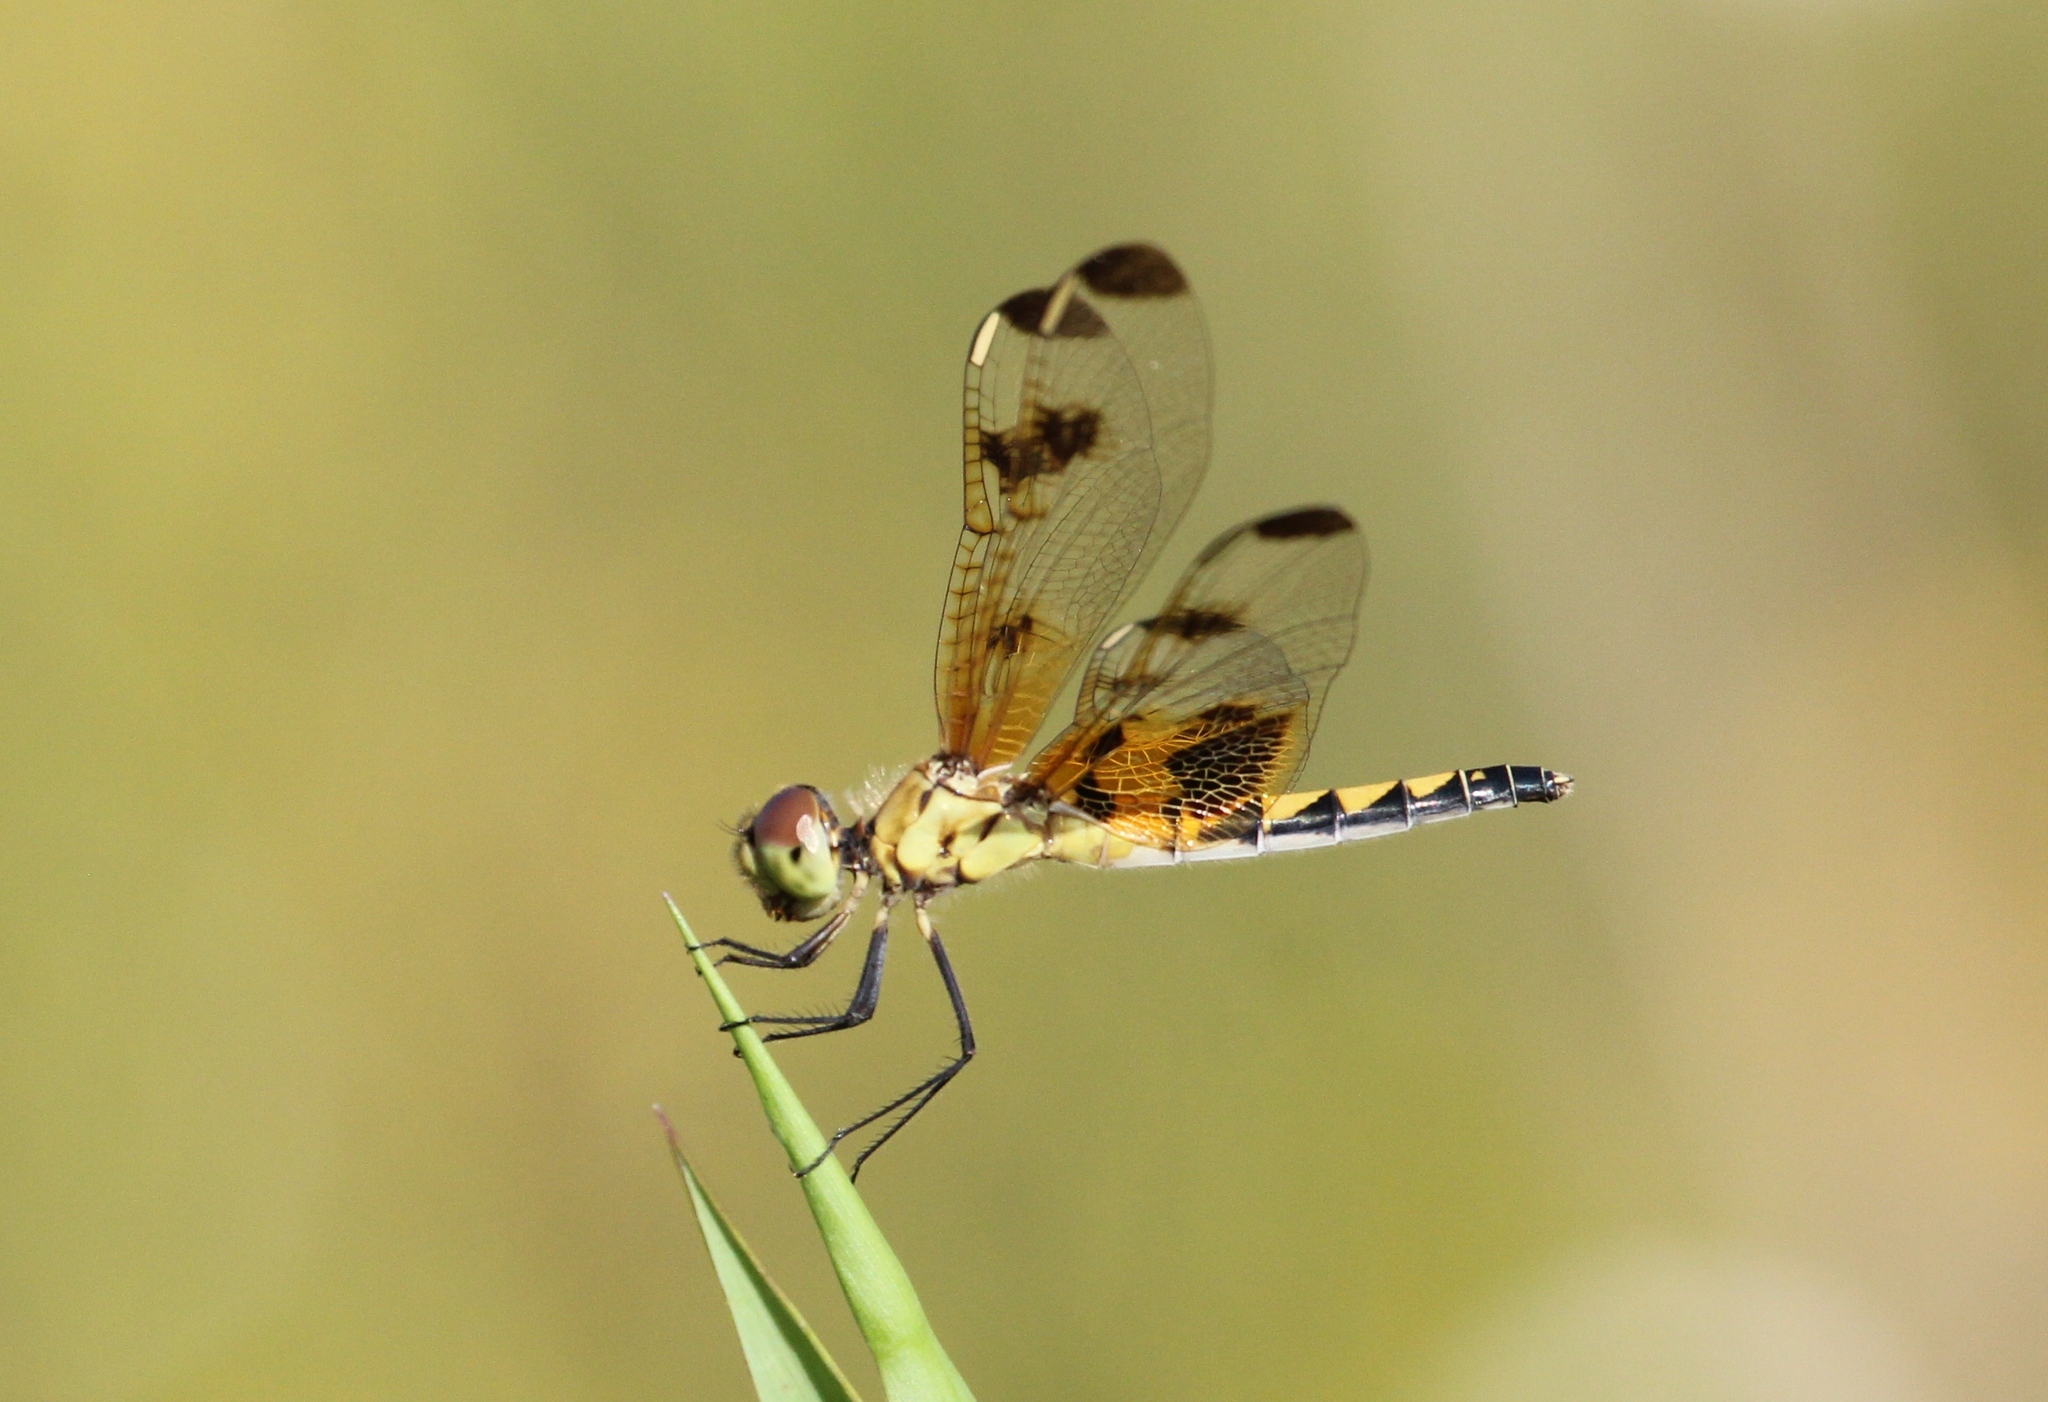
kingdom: Animalia
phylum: Arthropoda
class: Insecta
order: Odonata
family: Libellulidae
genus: Celithemis
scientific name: Celithemis elisa
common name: Calico pennant
